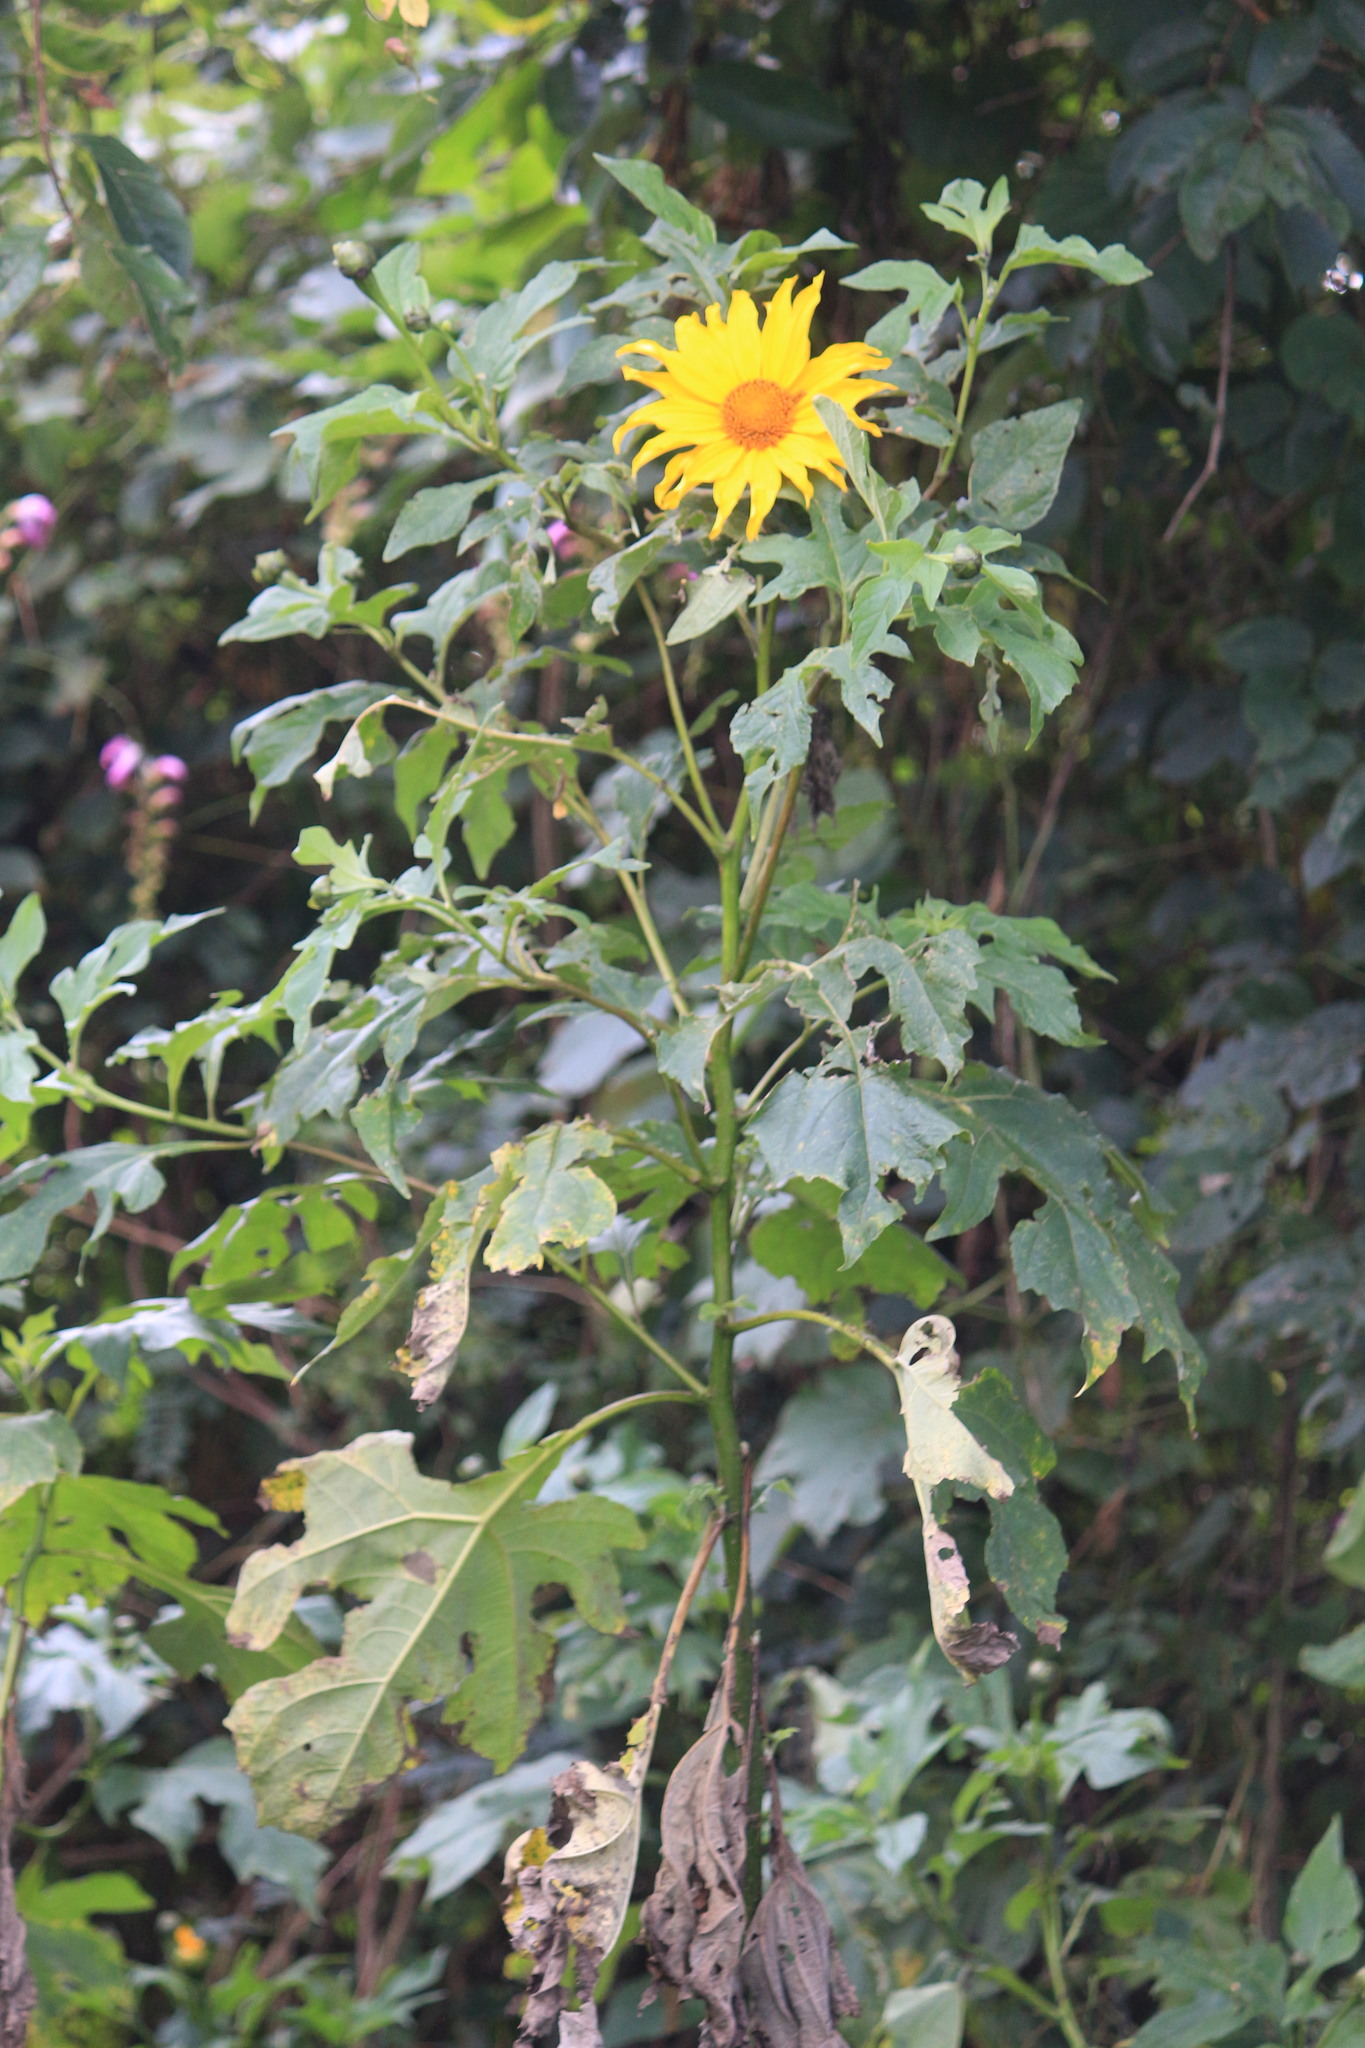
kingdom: Plantae
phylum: Tracheophyta
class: Magnoliopsida
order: Asterales
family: Asteraceae
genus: Tithonia
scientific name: Tithonia diversifolia
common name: Tree marigold
